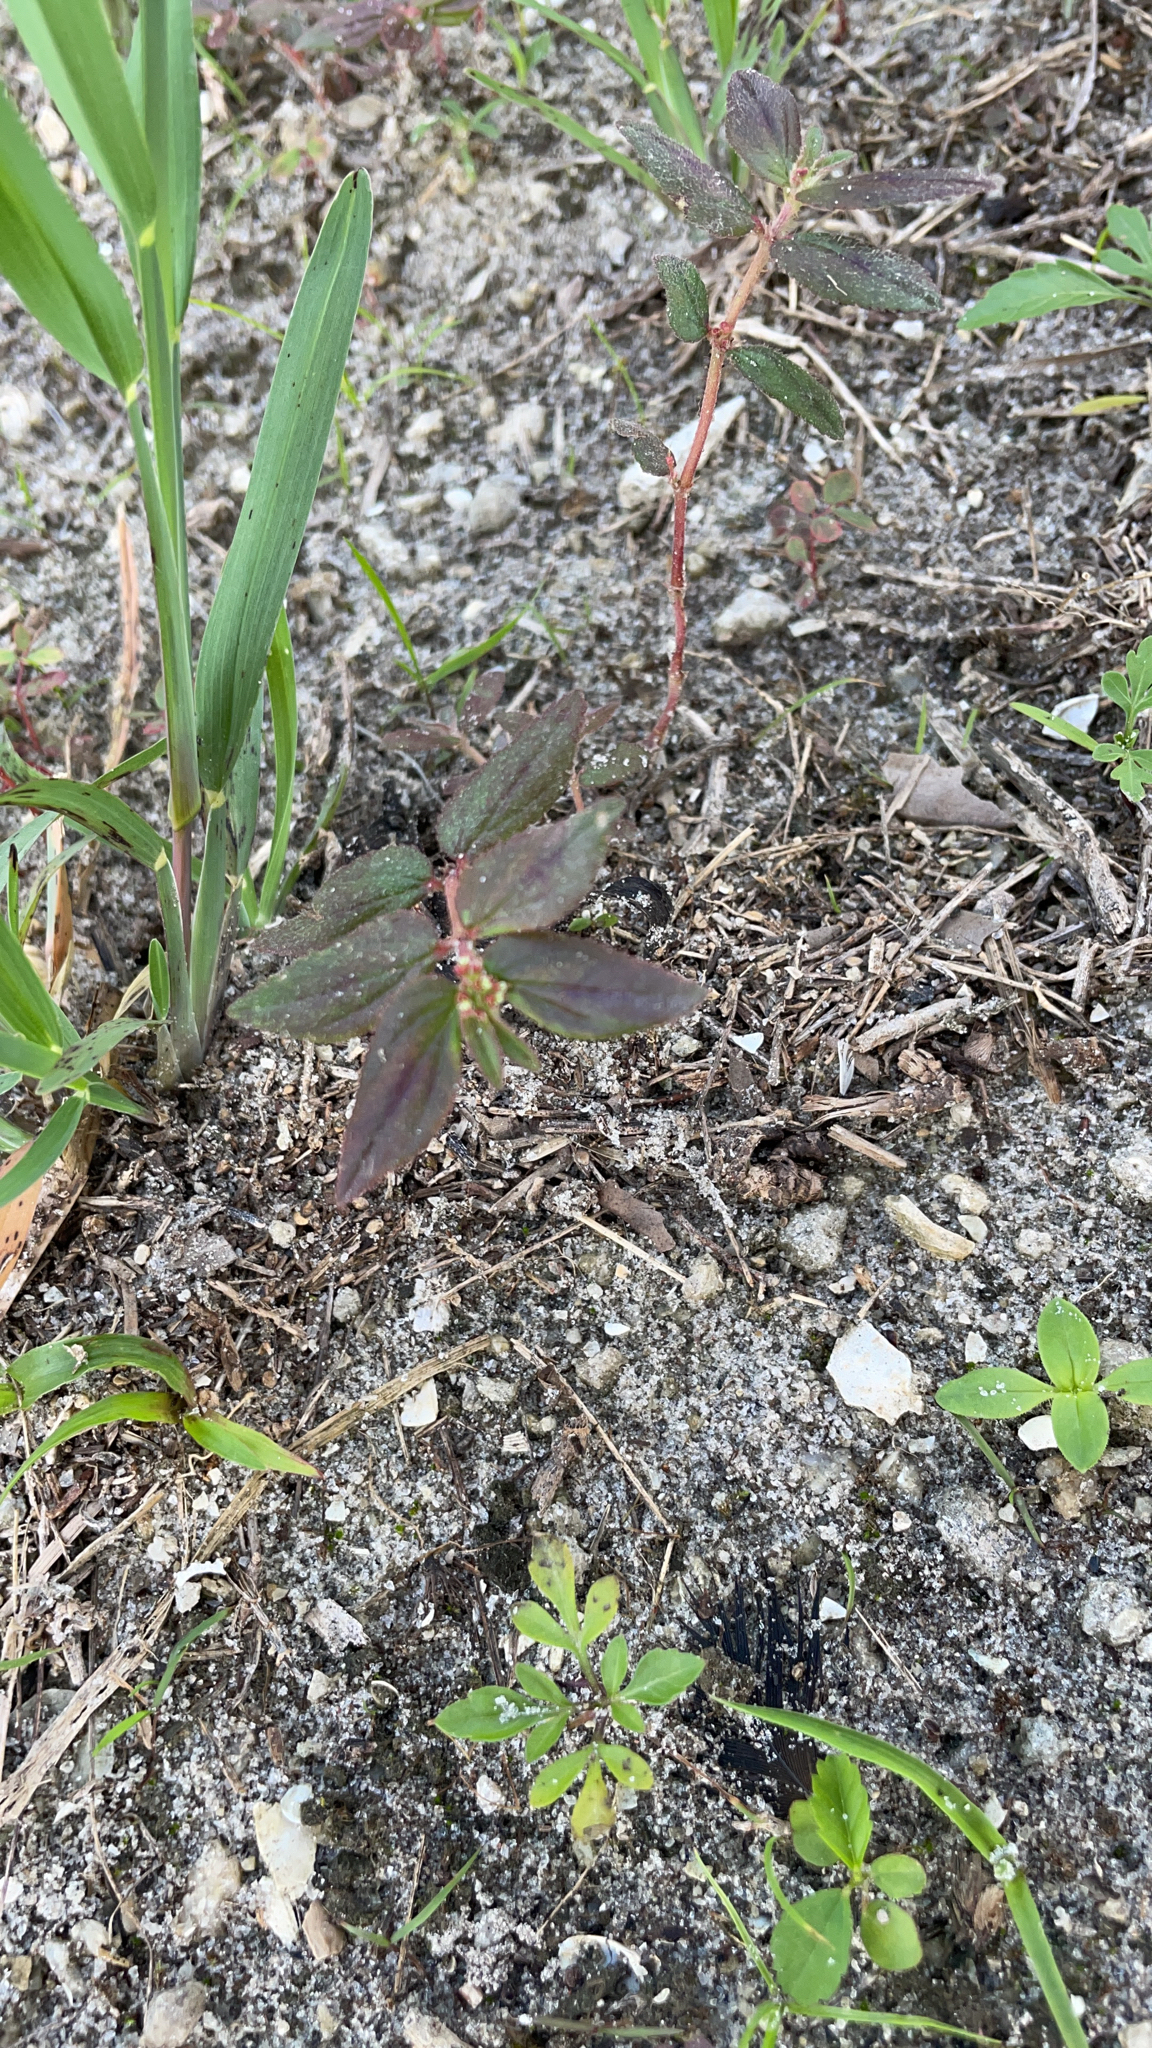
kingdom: Plantae
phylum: Tracheophyta
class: Magnoliopsida
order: Malpighiales
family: Euphorbiaceae
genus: Euphorbia
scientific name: Euphorbia hirta
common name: Pillpod sandmat
